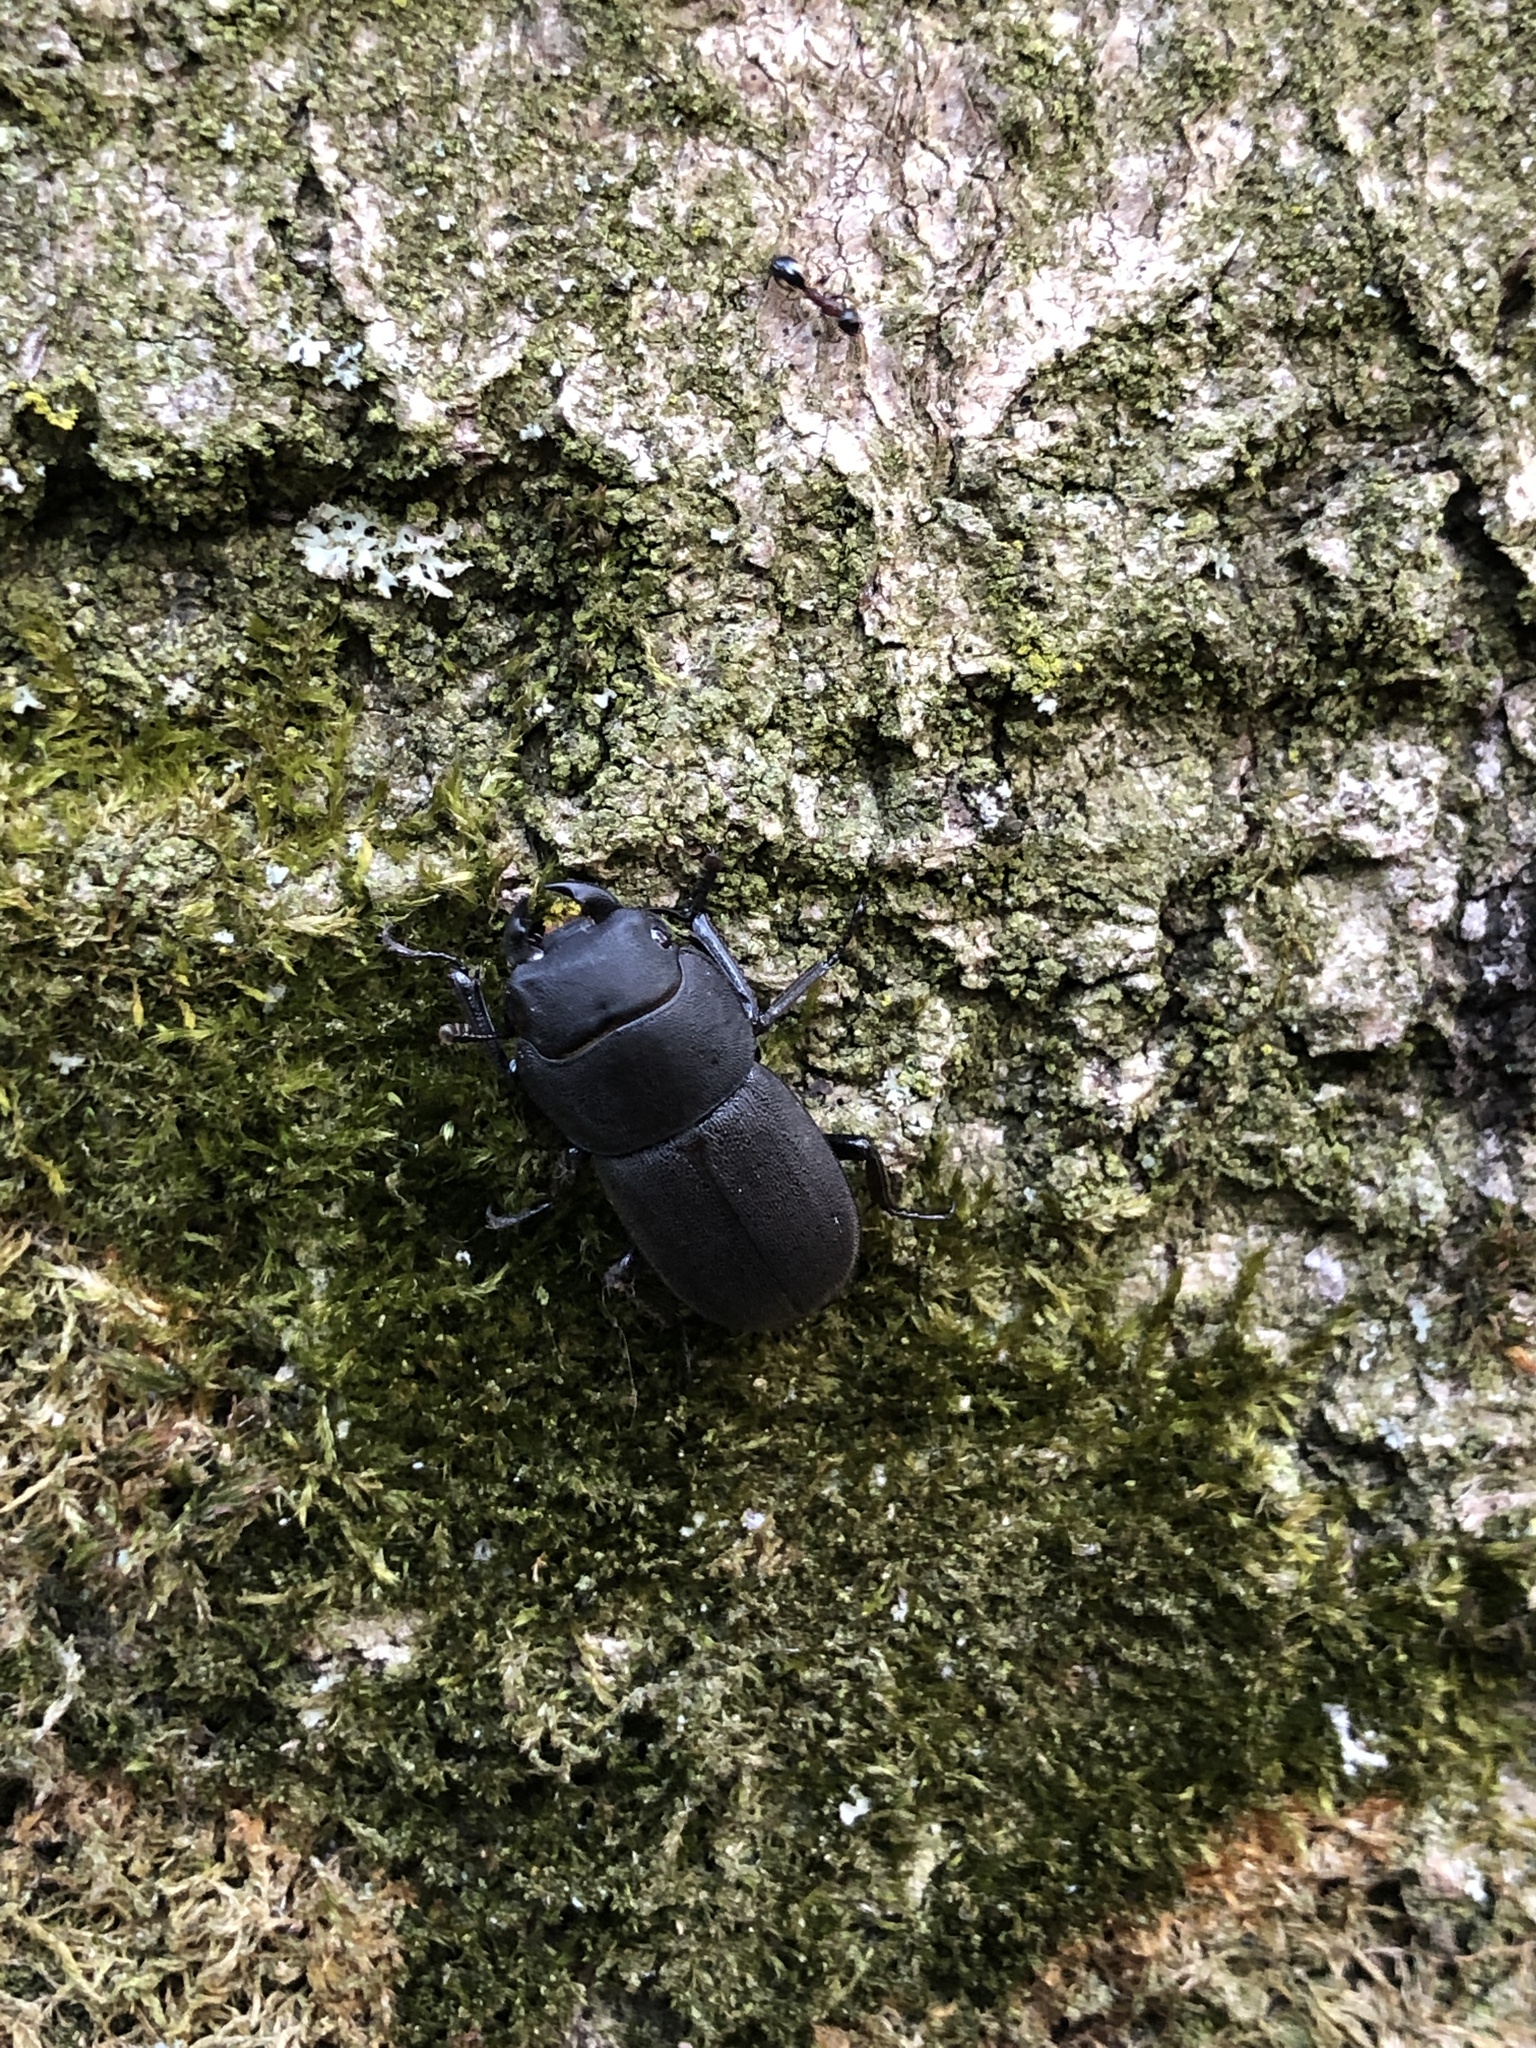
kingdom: Animalia
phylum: Arthropoda
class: Insecta
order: Coleoptera
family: Lucanidae
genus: Dorcus
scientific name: Dorcus parallelipipedus
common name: Lesser stag beetle
